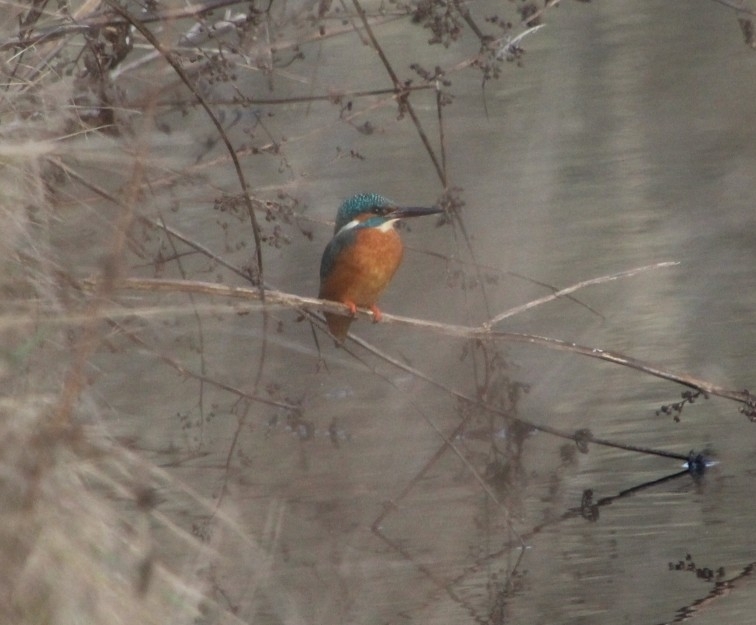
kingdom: Animalia
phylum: Chordata
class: Aves
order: Coraciiformes
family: Alcedinidae
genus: Alcedo
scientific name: Alcedo atthis
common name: Common kingfisher
